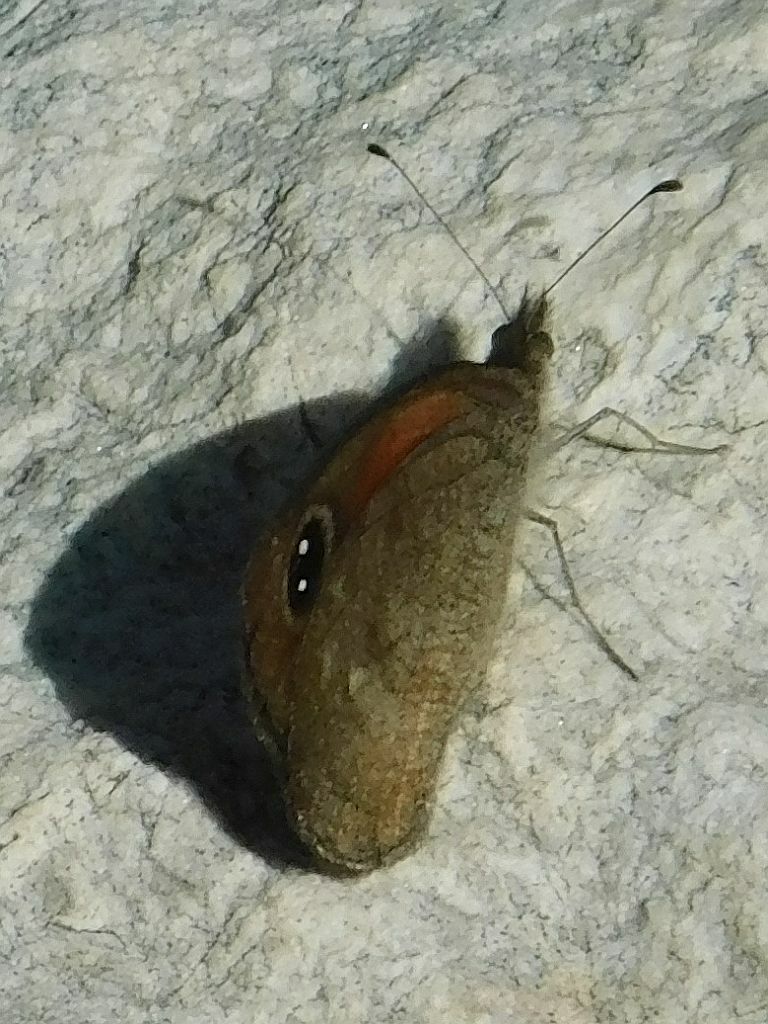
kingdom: Animalia
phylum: Arthropoda
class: Insecta
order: Lepidoptera
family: Nymphalidae
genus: Stygionympha
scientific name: Stygionympha vigilans
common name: Western hillside brown
